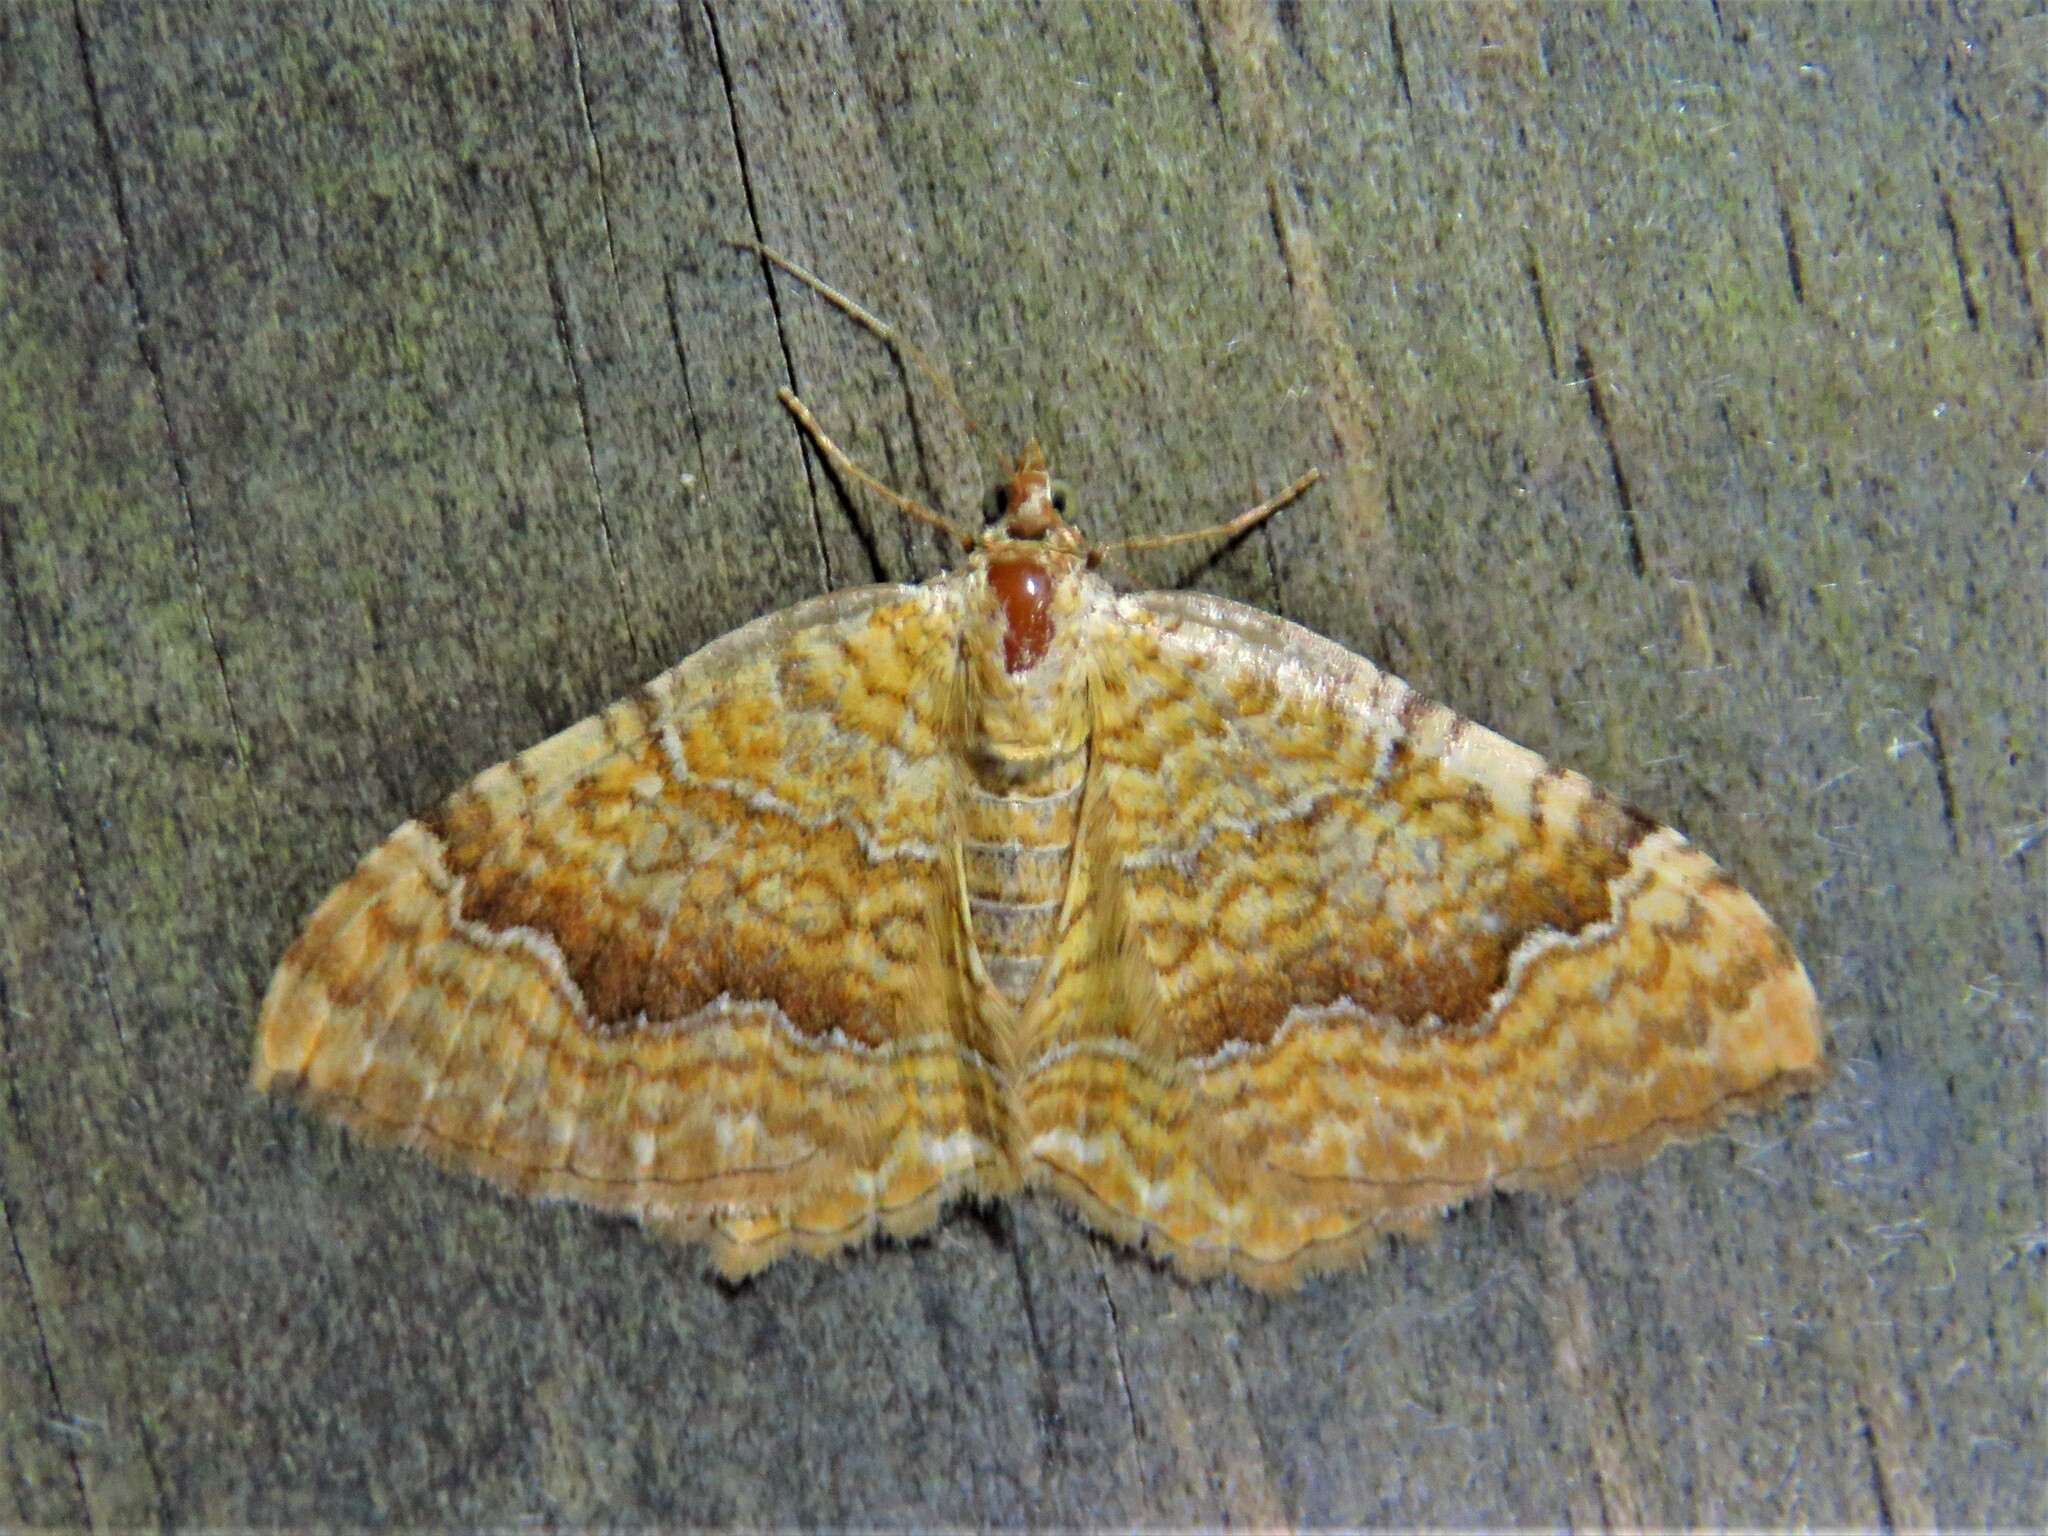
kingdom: Animalia
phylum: Arthropoda
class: Insecta
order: Lepidoptera
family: Geometridae
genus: Camptogramma
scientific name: Camptogramma bilineata
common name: Yellow shell
